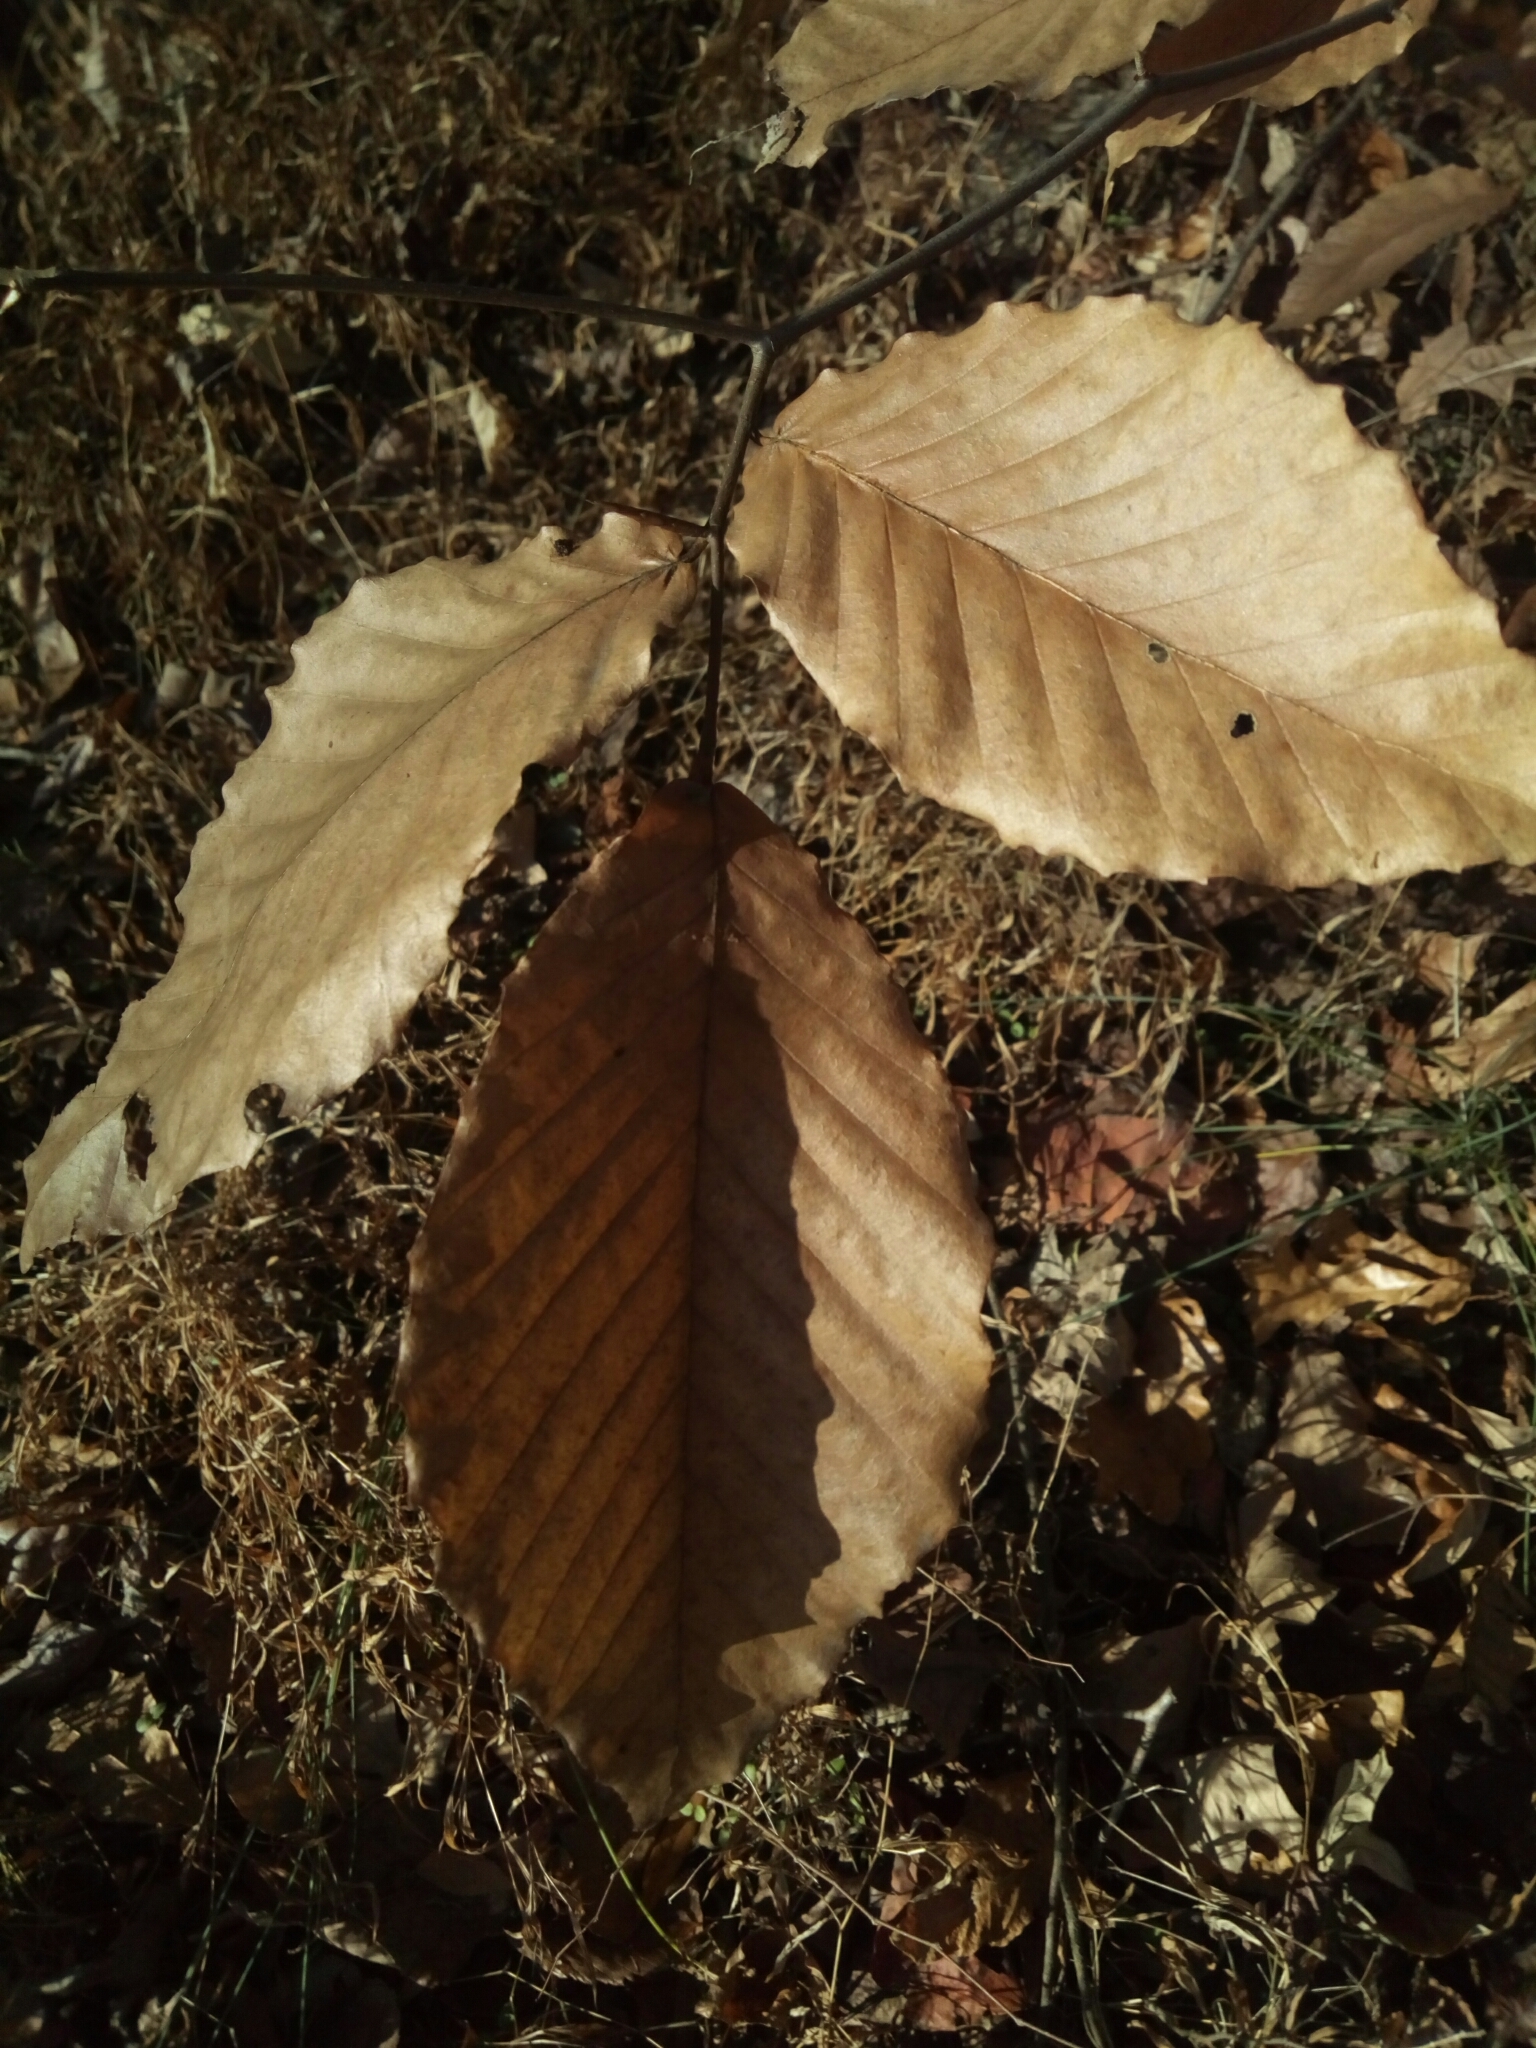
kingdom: Plantae
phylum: Tracheophyta
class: Magnoliopsida
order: Fagales
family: Fagaceae
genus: Fagus
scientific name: Fagus grandifolia
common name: American beech
